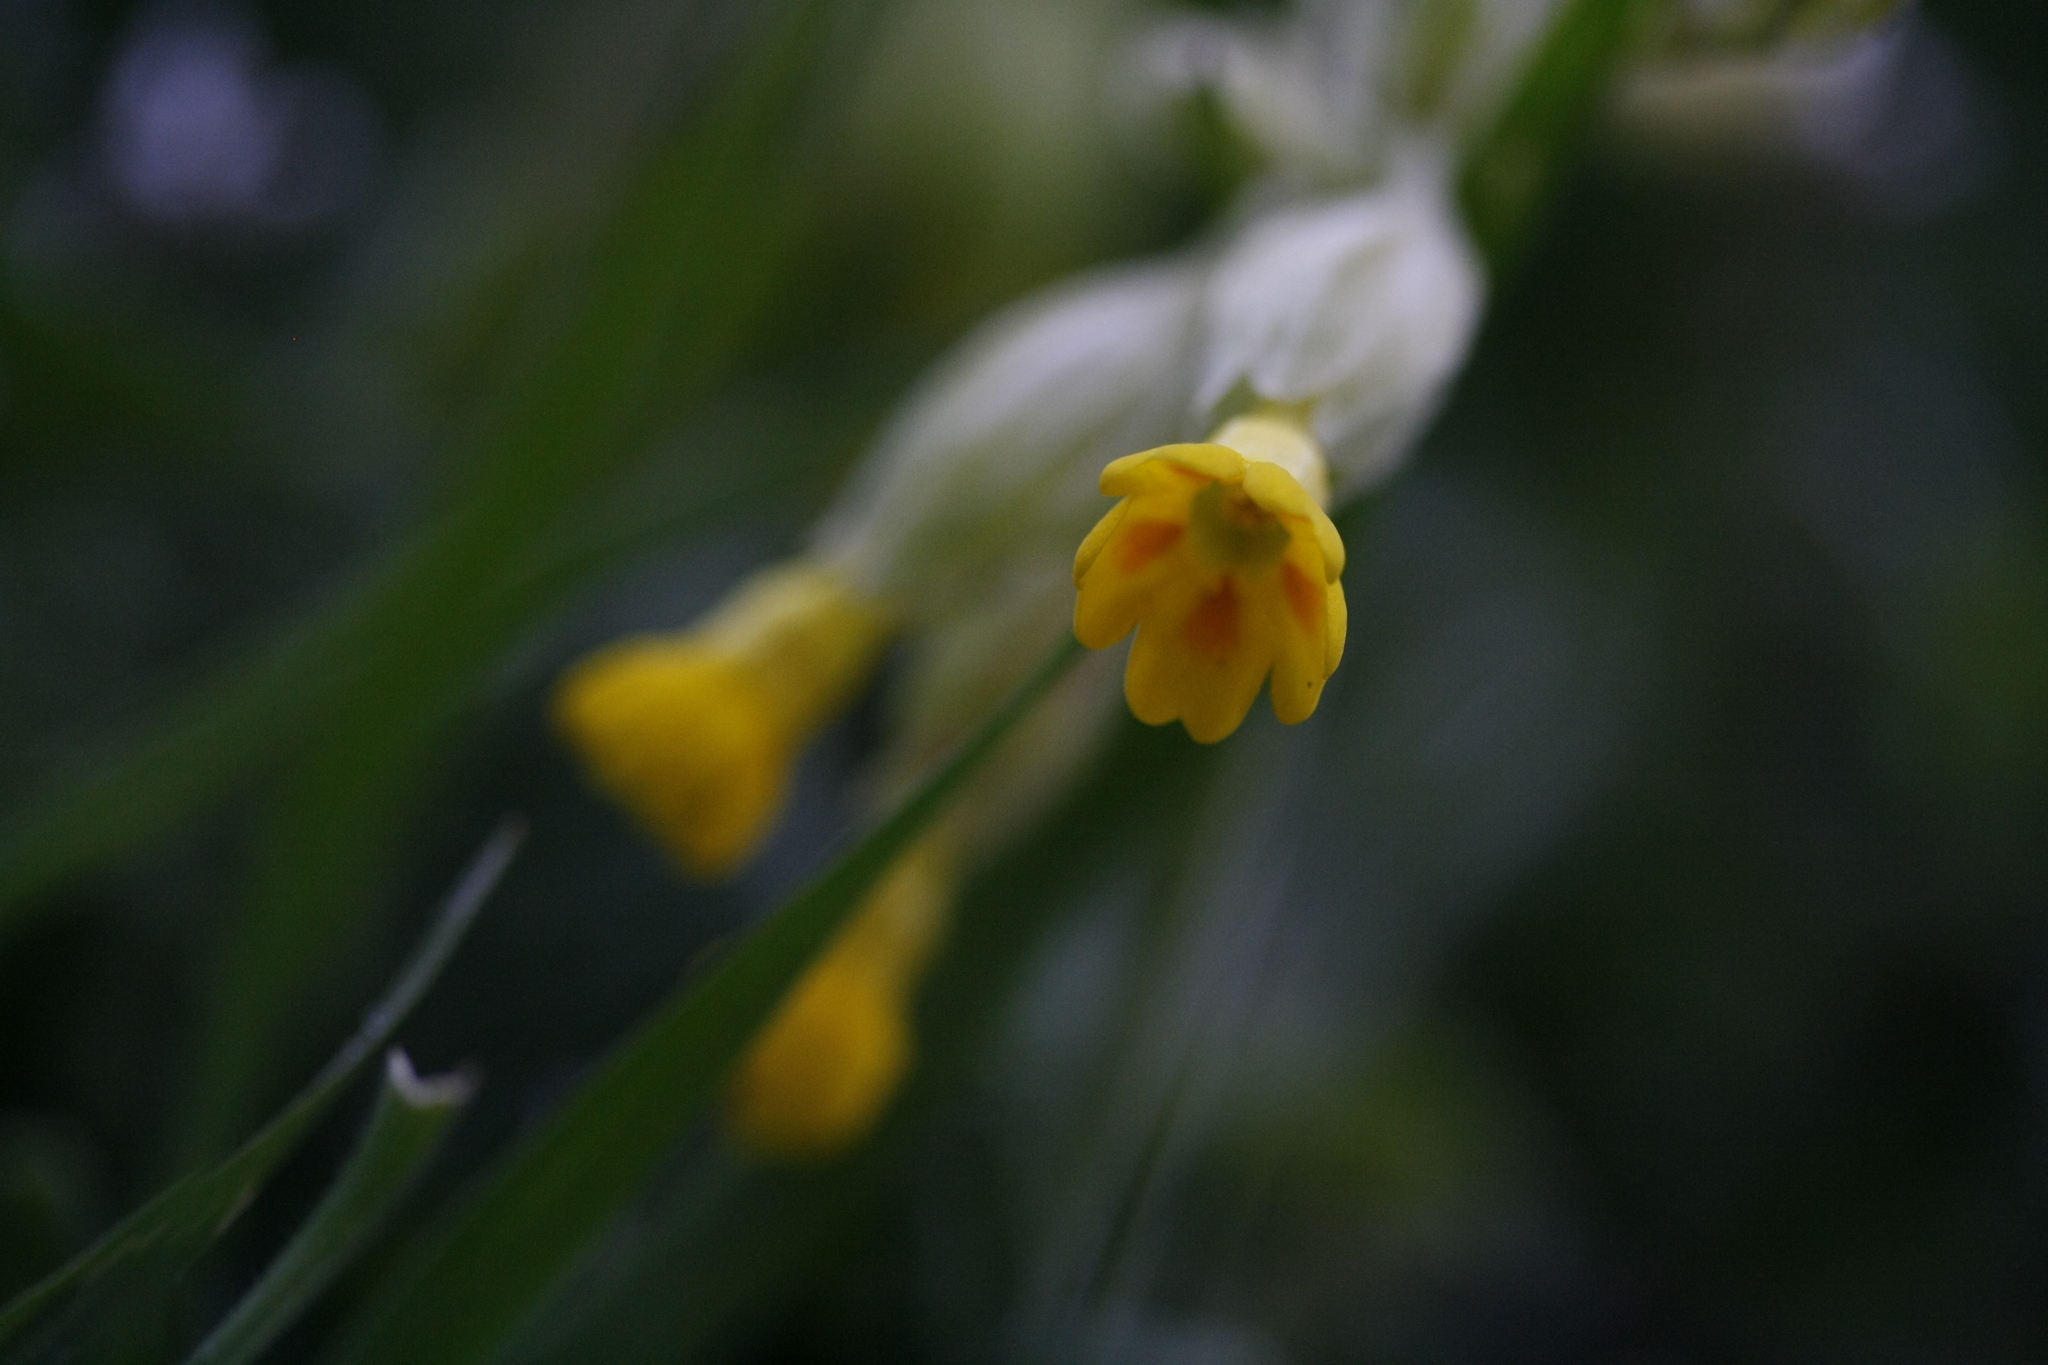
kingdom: Plantae
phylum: Tracheophyta
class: Magnoliopsida
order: Ericales
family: Primulaceae
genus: Primula
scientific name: Primula veris
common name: Cowslip
